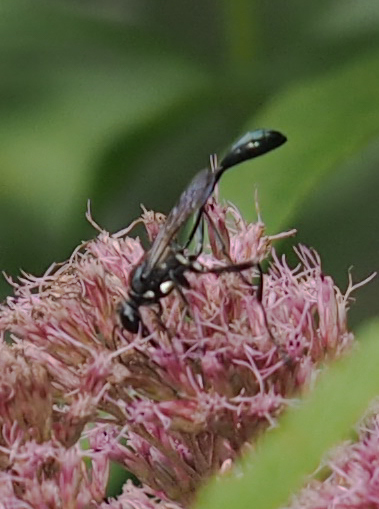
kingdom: Animalia
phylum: Arthropoda
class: Insecta
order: Hymenoptera
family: Sphecidae
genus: Eremnophila
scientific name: Eremnophila aureonotata
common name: Gold-marked thread-waisted wasp
